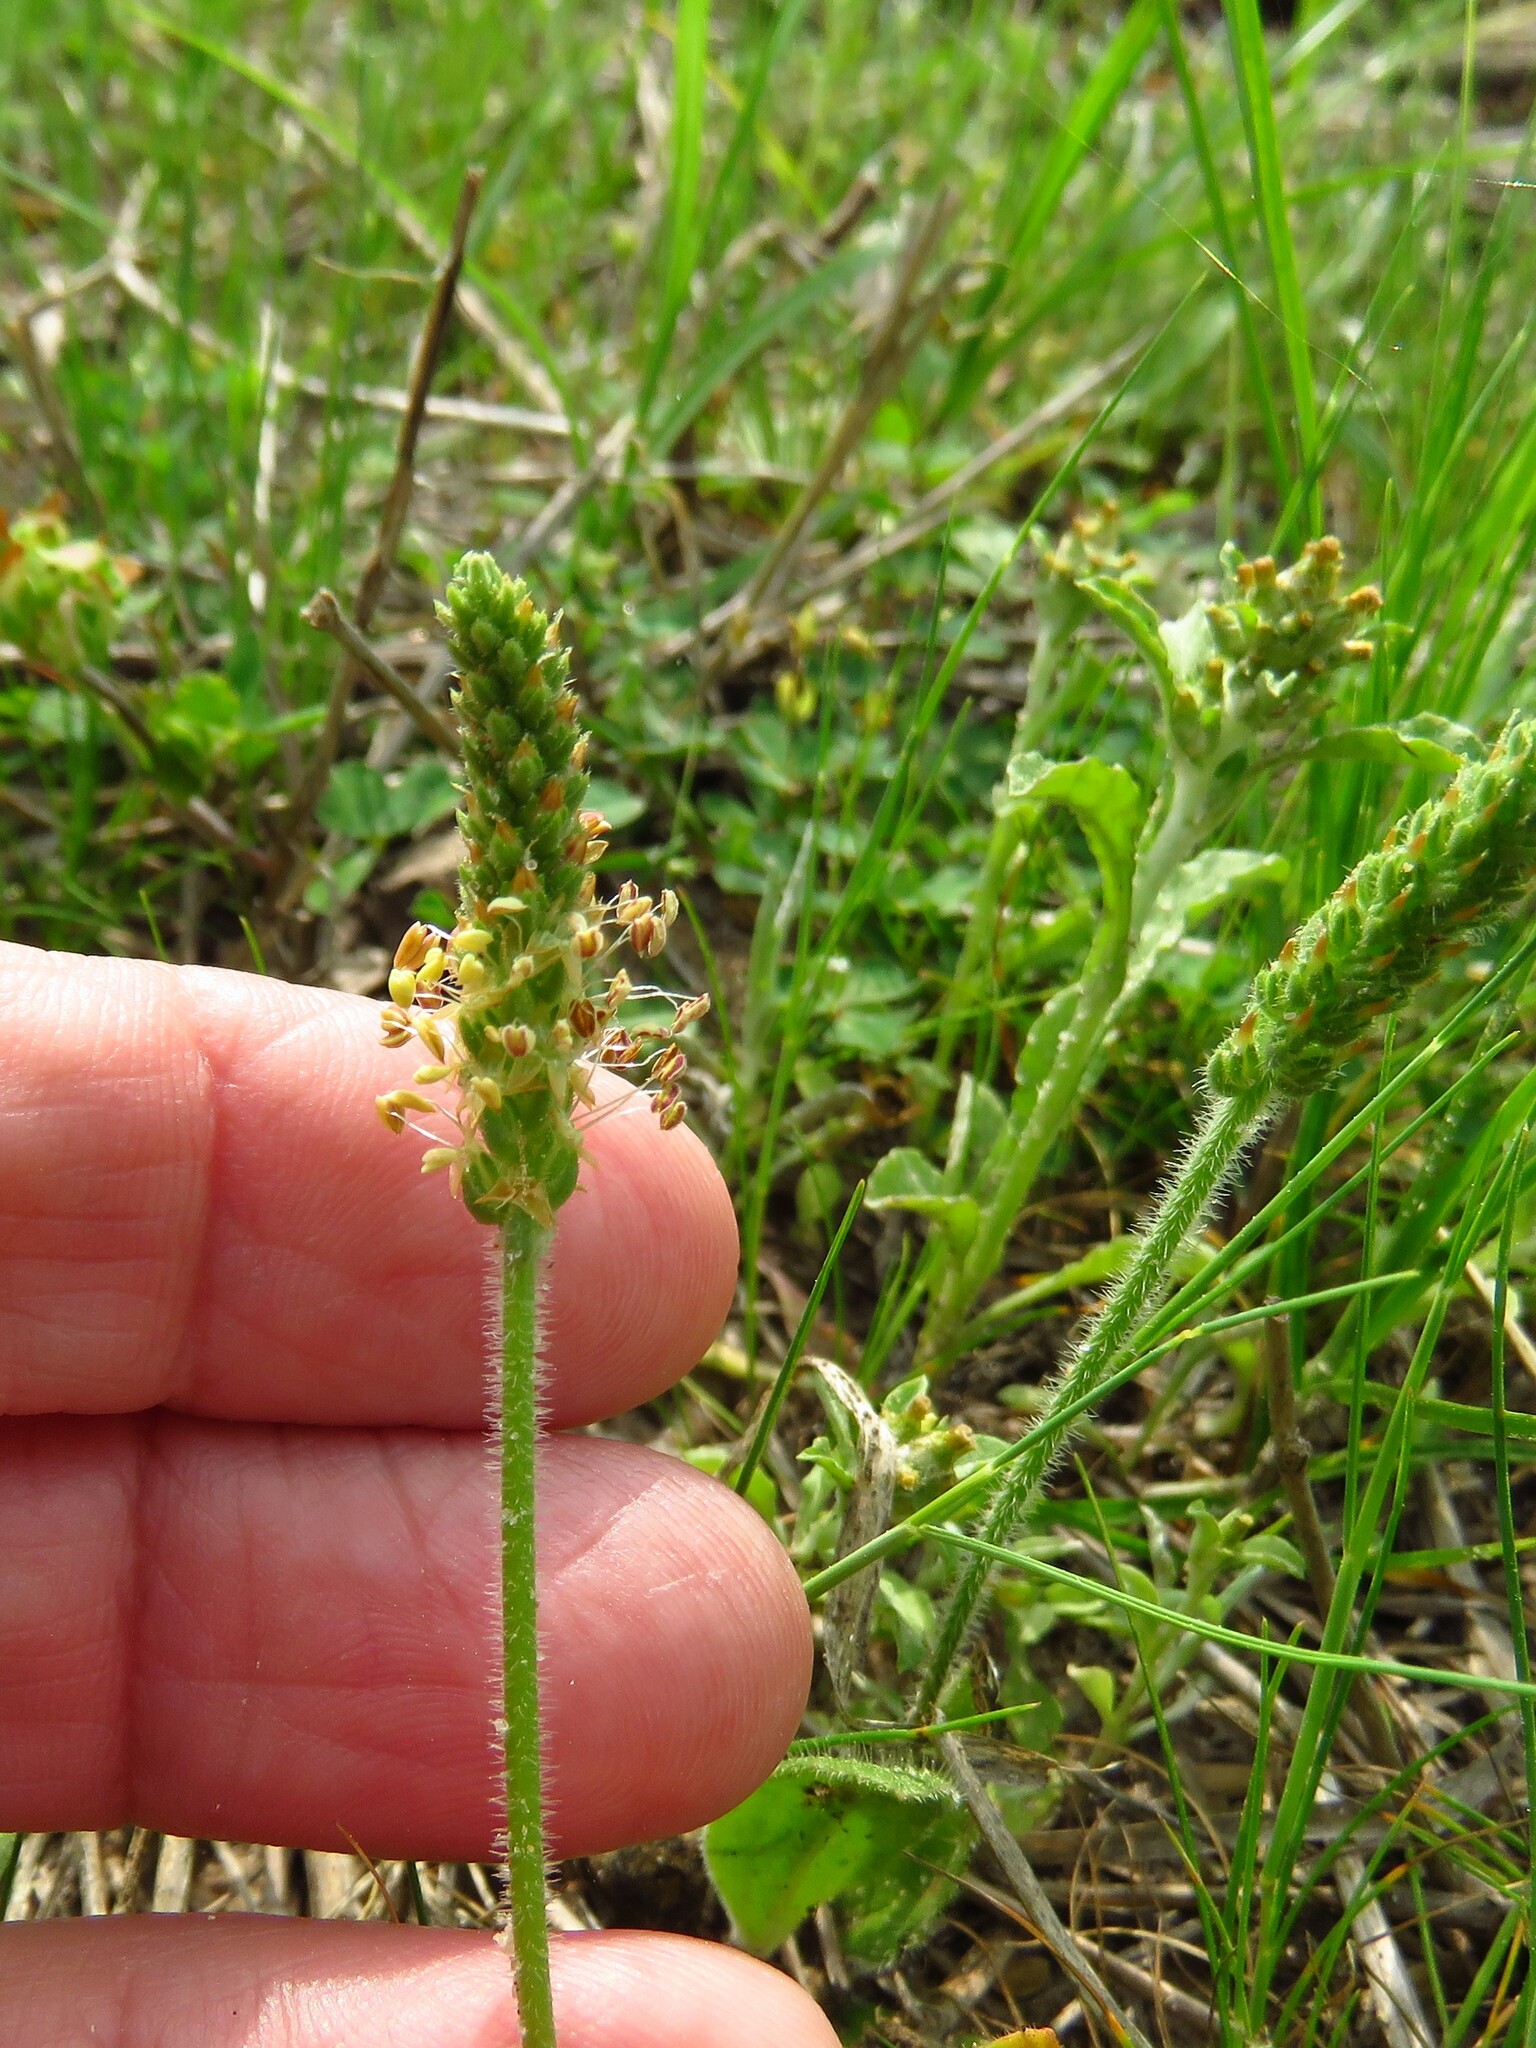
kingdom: Plantae
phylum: Tracheophyta
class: Magnoliopsida
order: Lamiales
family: Plantaginaceae
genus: Plantago
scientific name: Plantago rhodosperma
